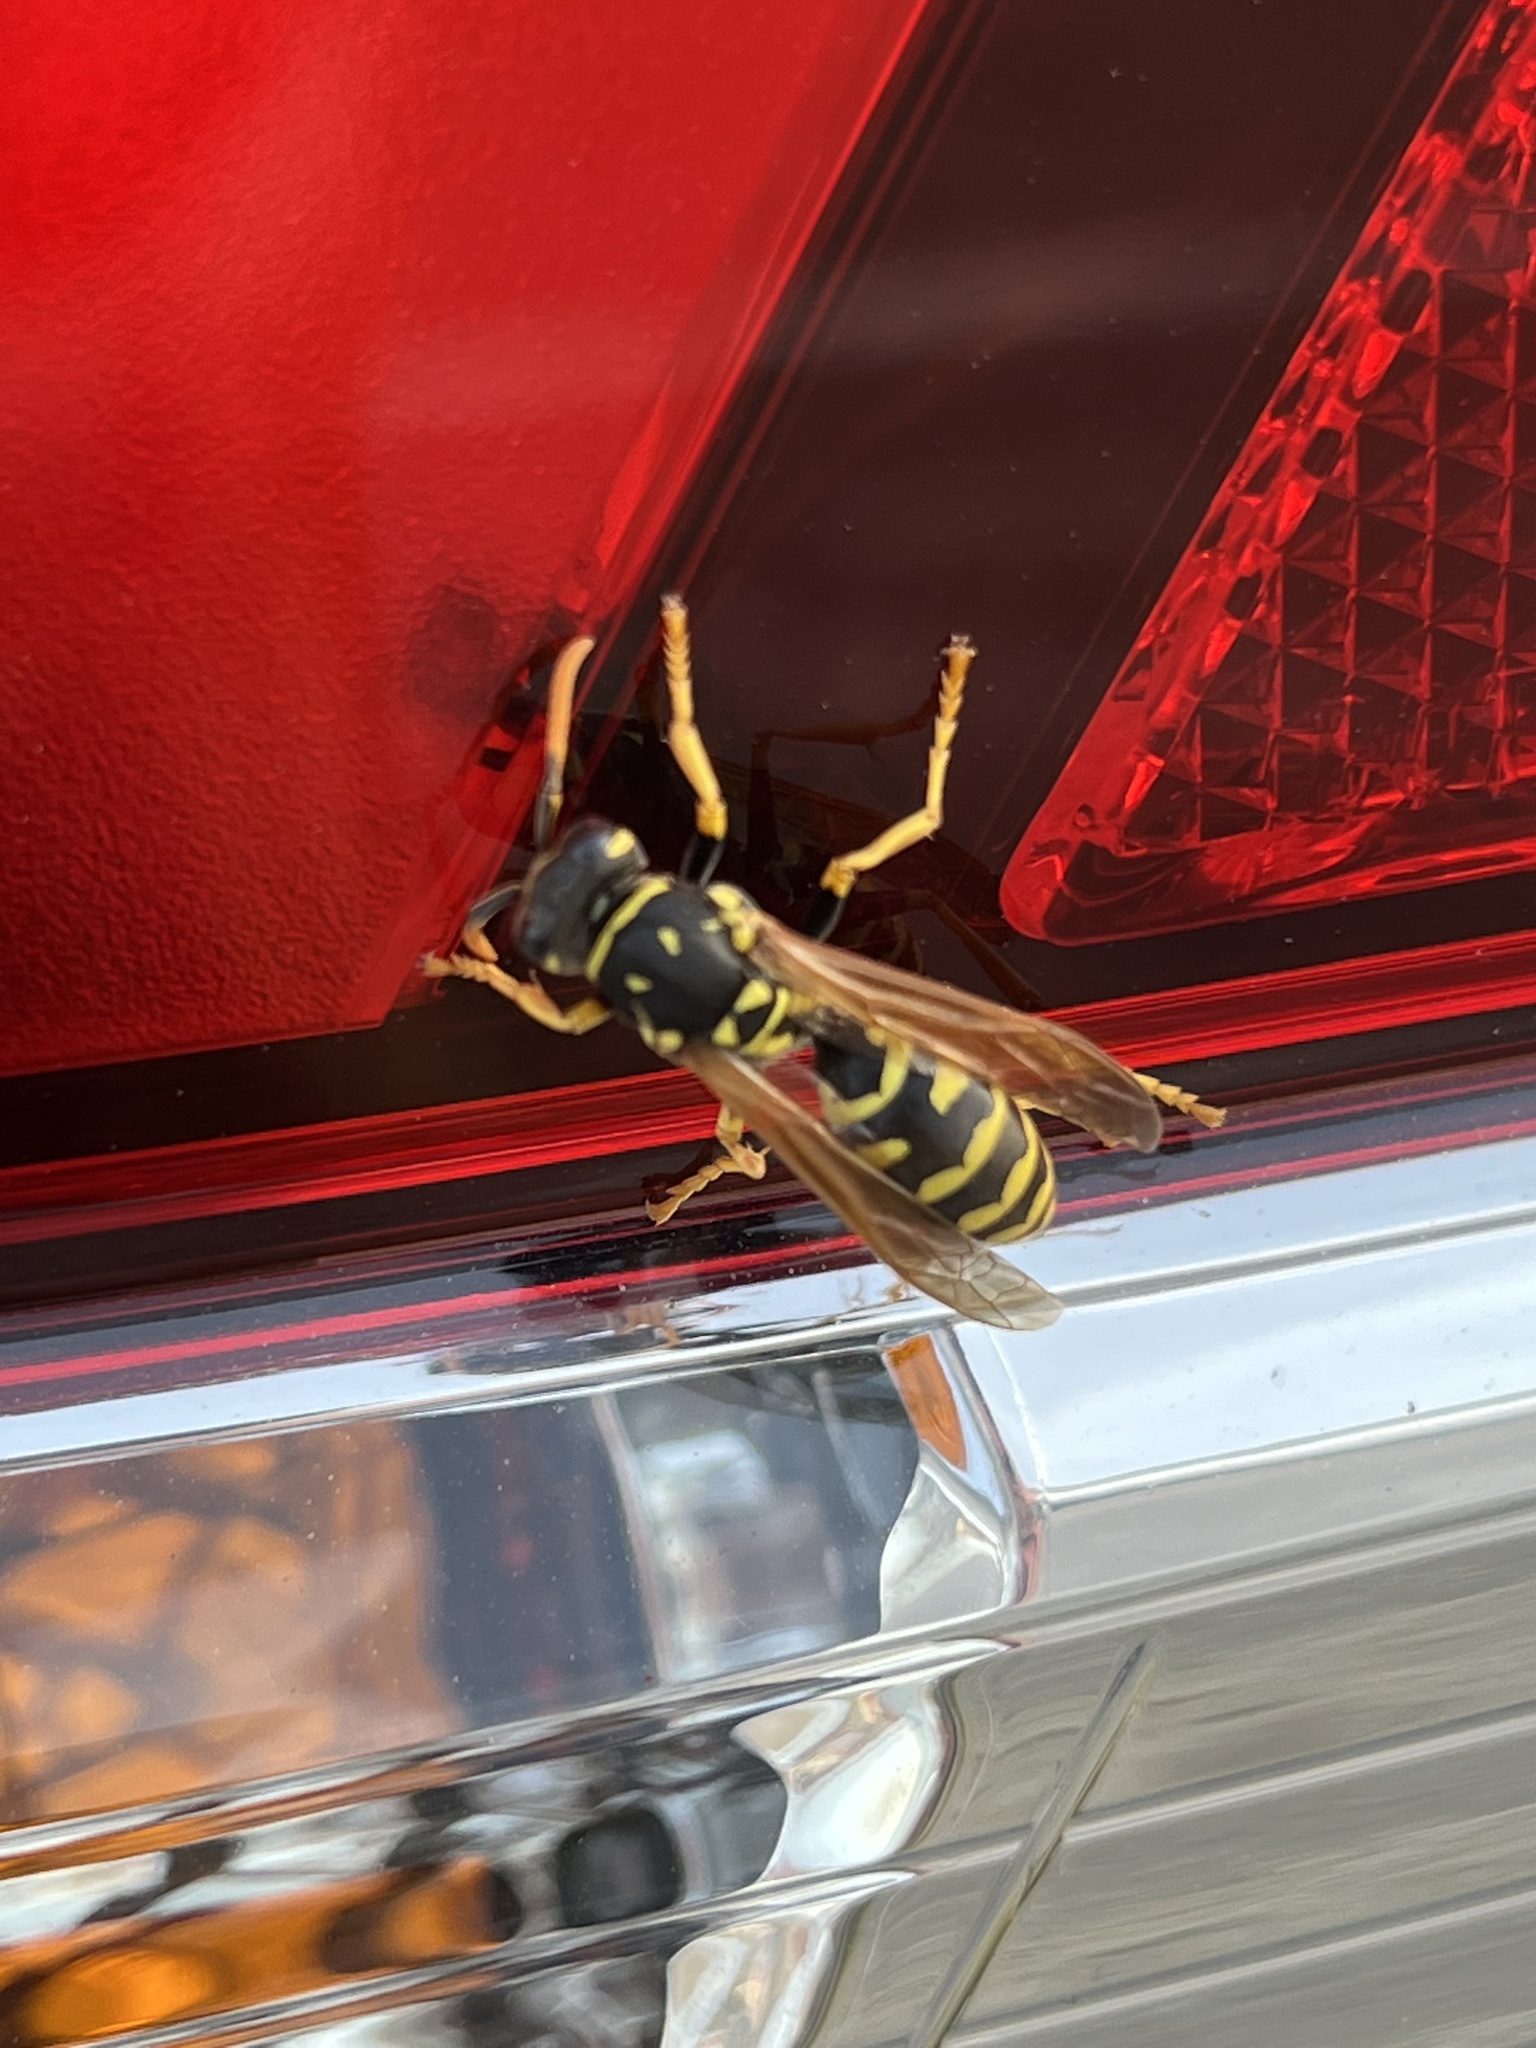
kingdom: Animalia
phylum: Arthropoda
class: Insecta
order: Hymenoptera
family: Eumenidae
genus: Polistes
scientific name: Polistes dominula
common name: Paper wasp
